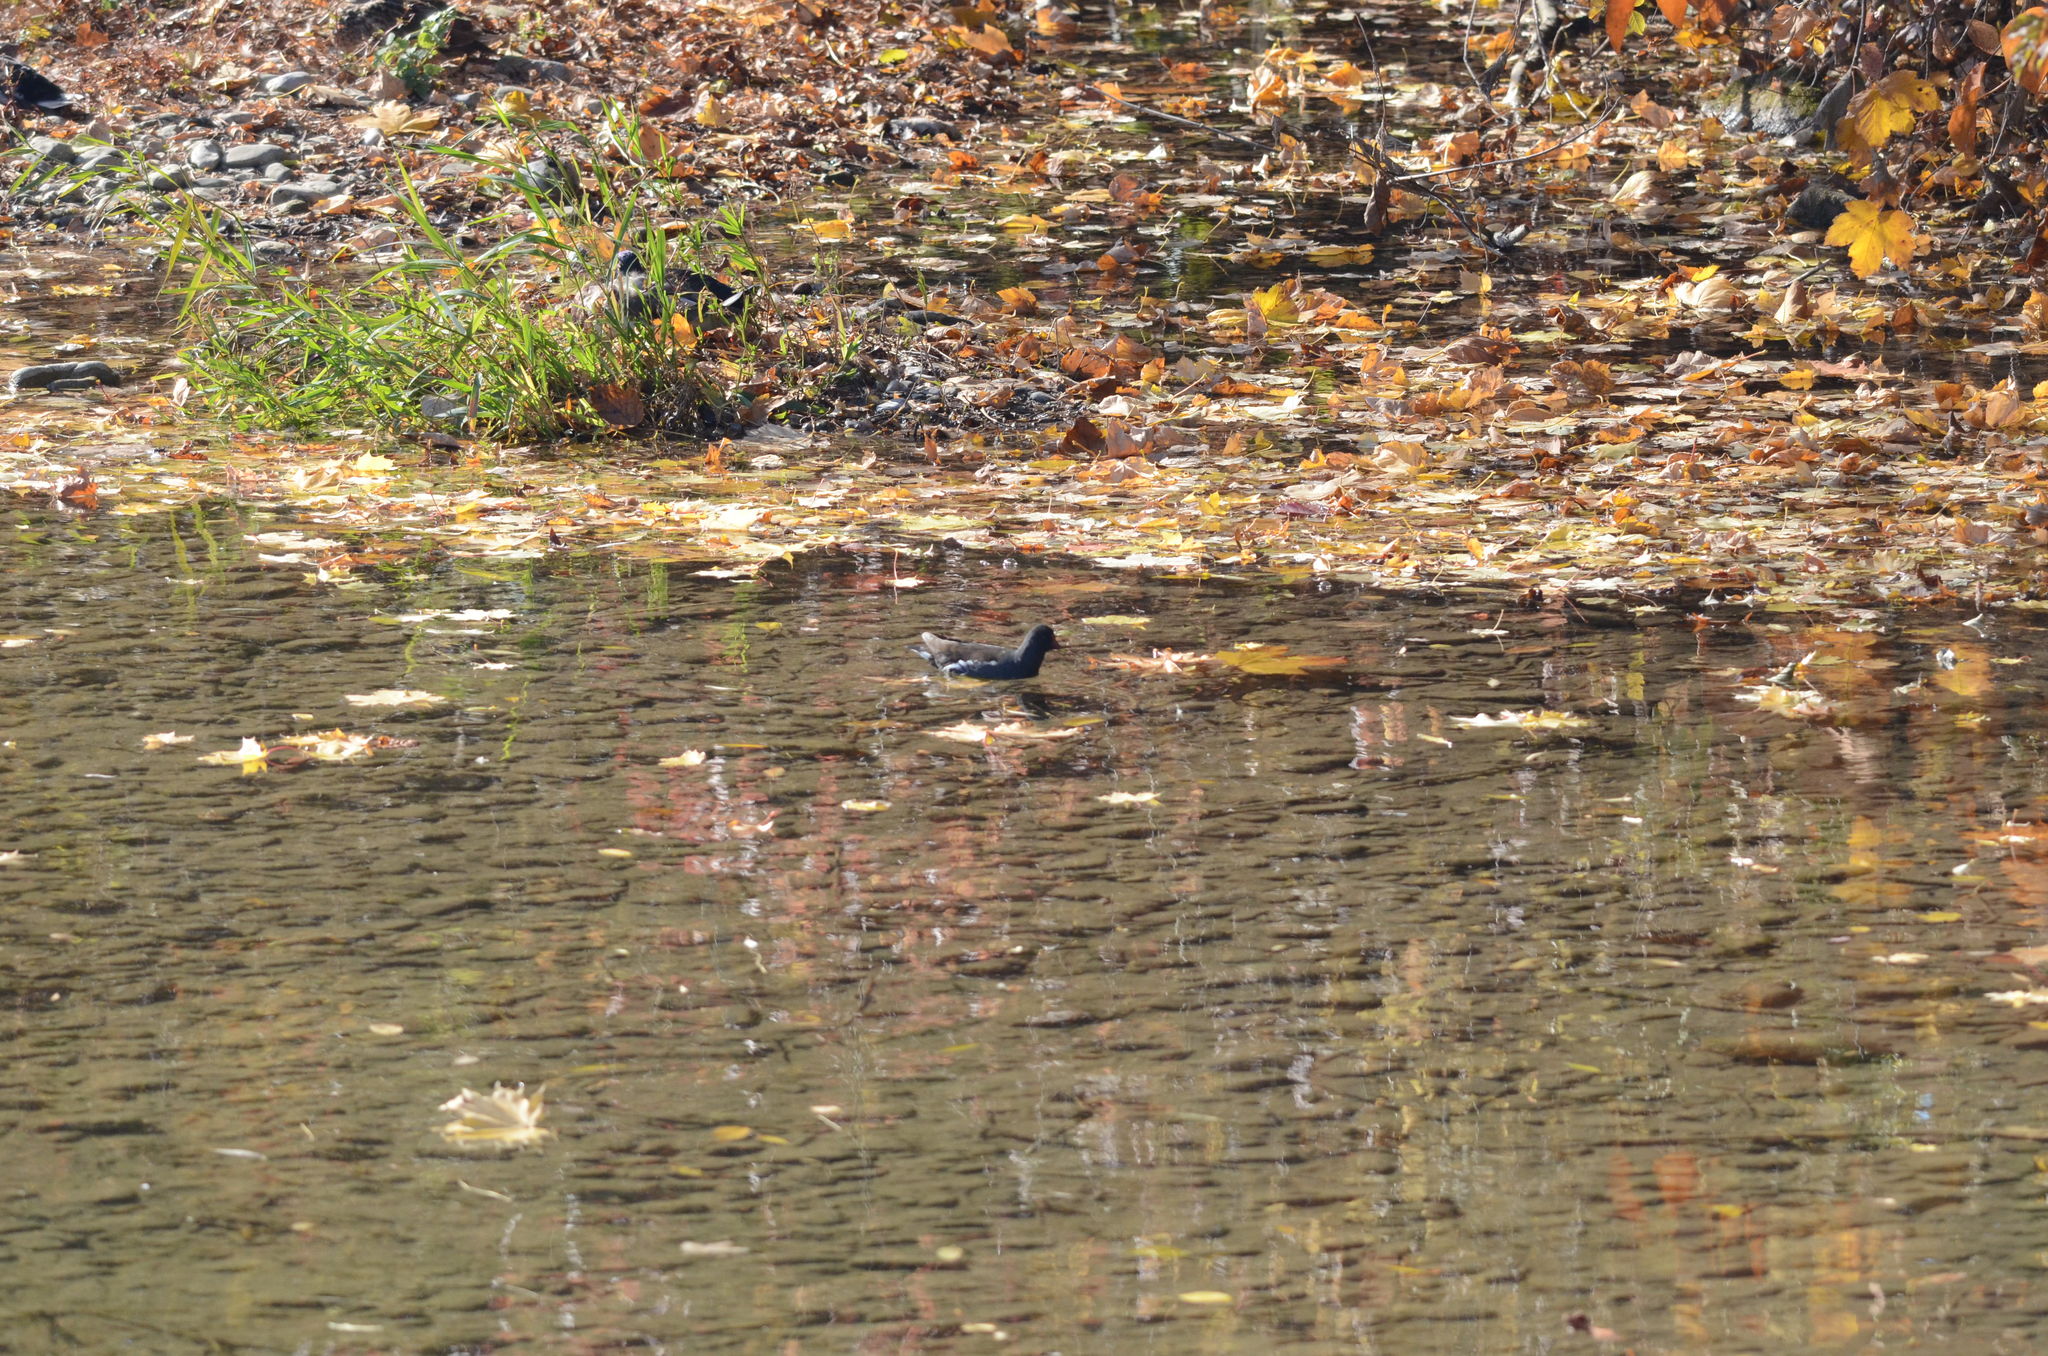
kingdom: Animalia
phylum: Chordata
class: Aves
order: Gruiformes
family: Rallidae
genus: Gallinula
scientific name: Gallinula chloropus
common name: Common moorhen
